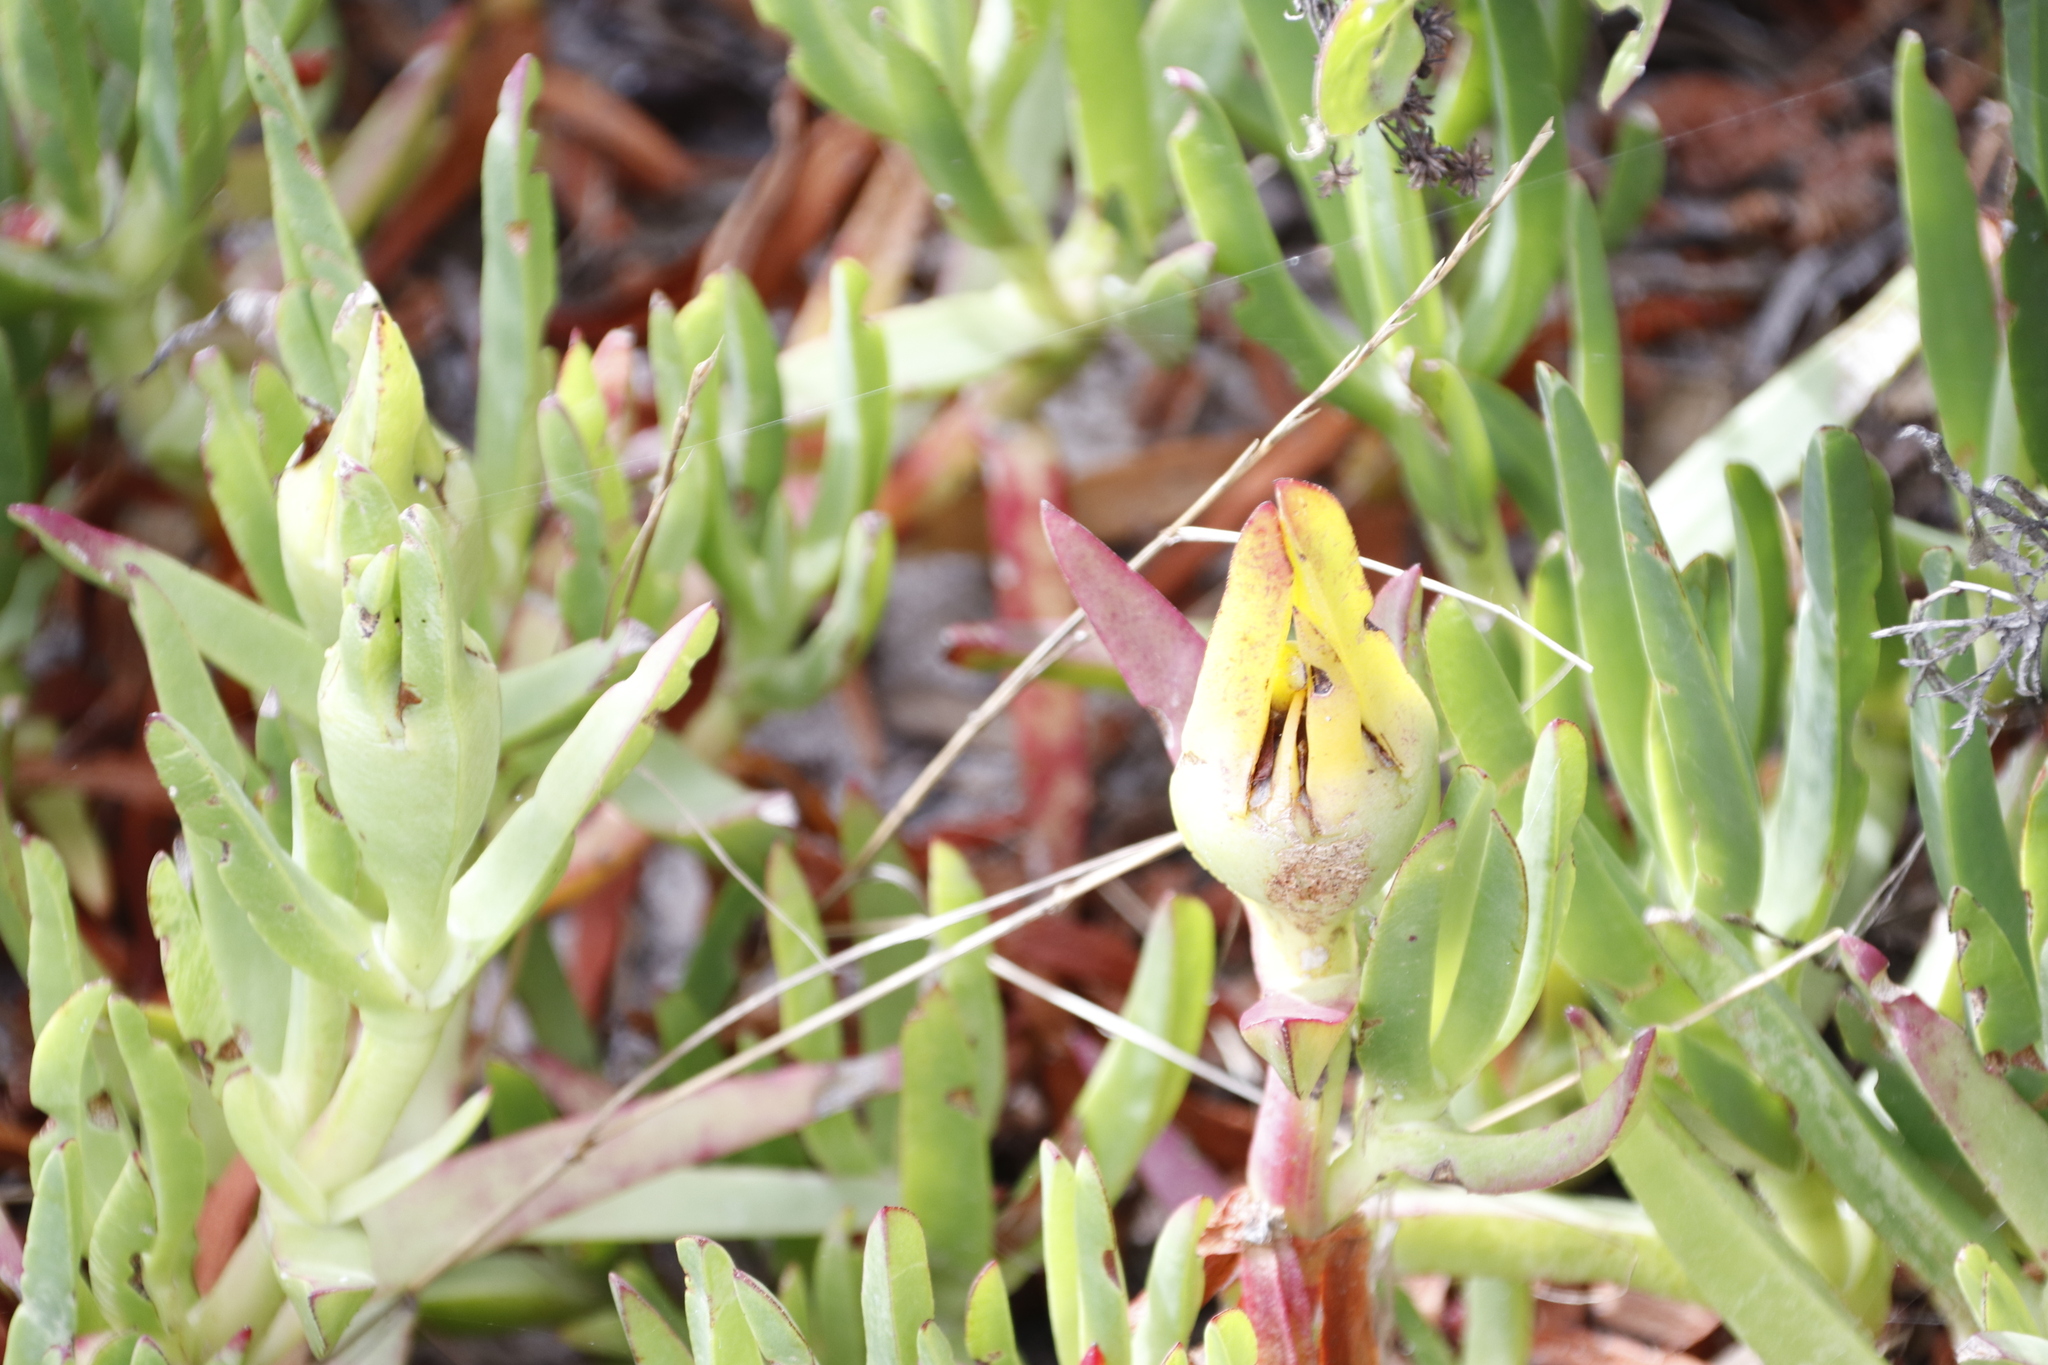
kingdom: Plantae
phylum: Tracheophyta
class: Magnoliopsida
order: Caryophyllales
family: Aizoaceae
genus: Carpobrotus
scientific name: Carpobrotus edulis
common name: Hottentot-fig
